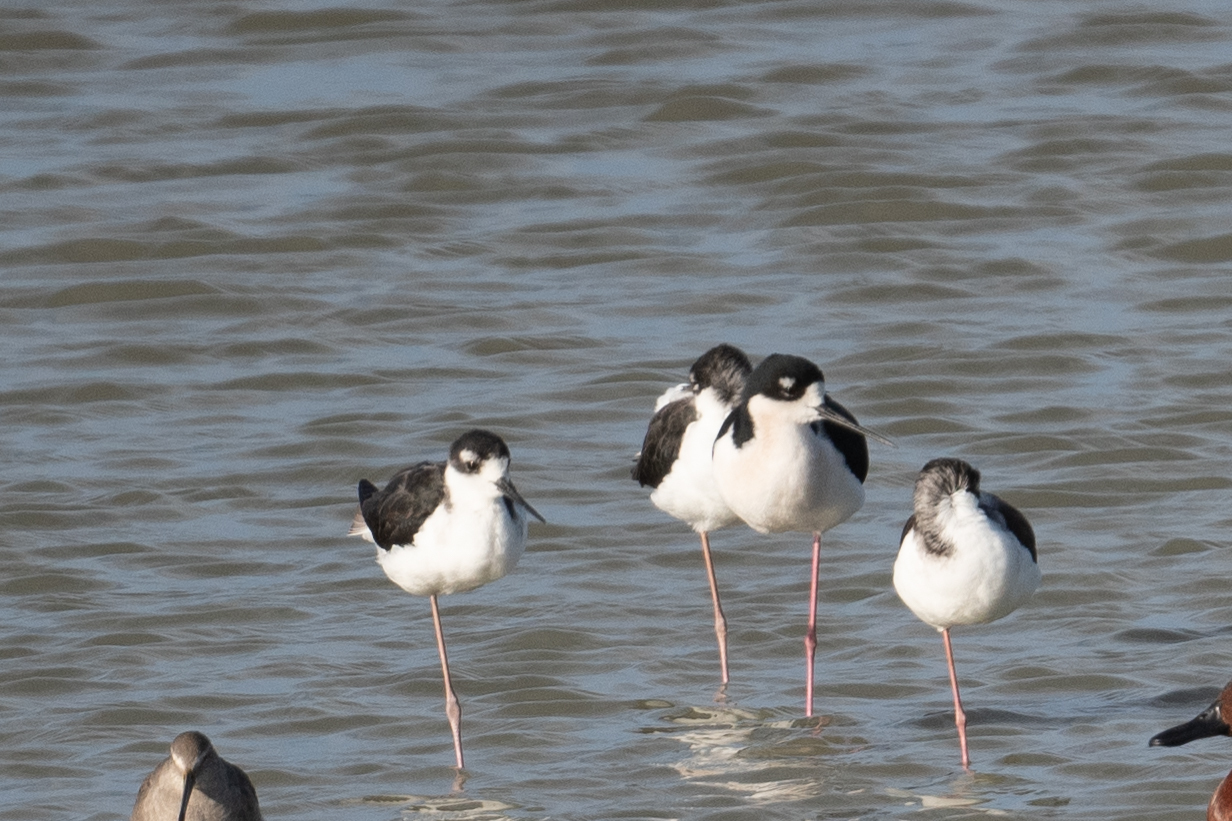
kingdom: Animalia
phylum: Chordata
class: Aves
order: Charadriiformes
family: Recurvirostridae
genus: Himantopus
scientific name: Himantopus mexicanus
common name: Black-necked stilt
